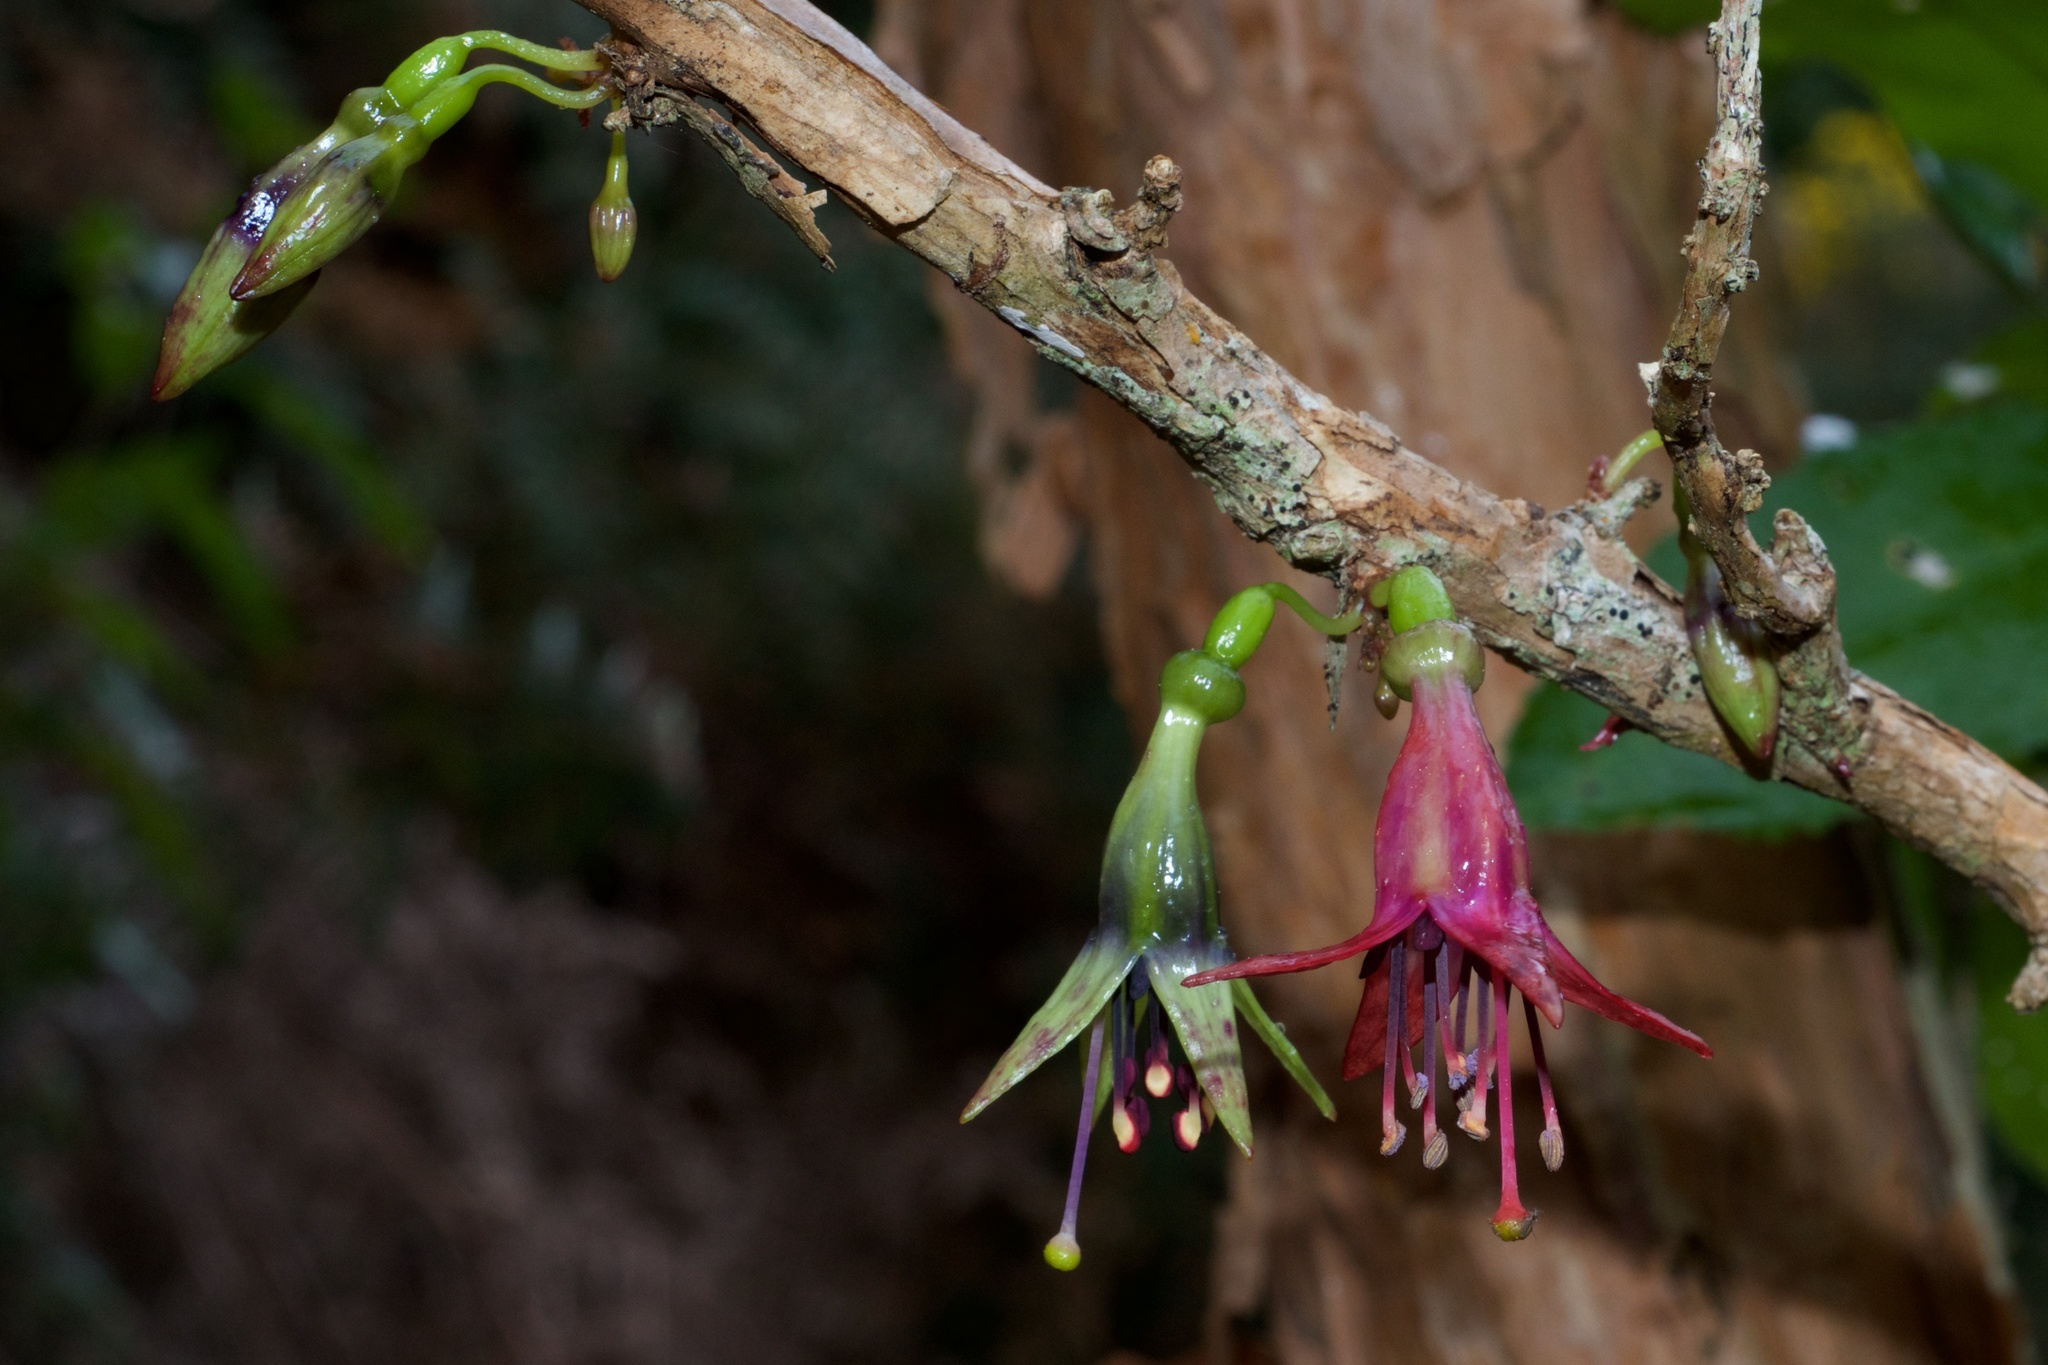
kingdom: Plantae
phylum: Tracheophyta
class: Magnoliopsida
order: Myrtales
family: Onagraceae
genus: Fuchsia
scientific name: Fuchsia excorticata
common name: Tree fuchsia
